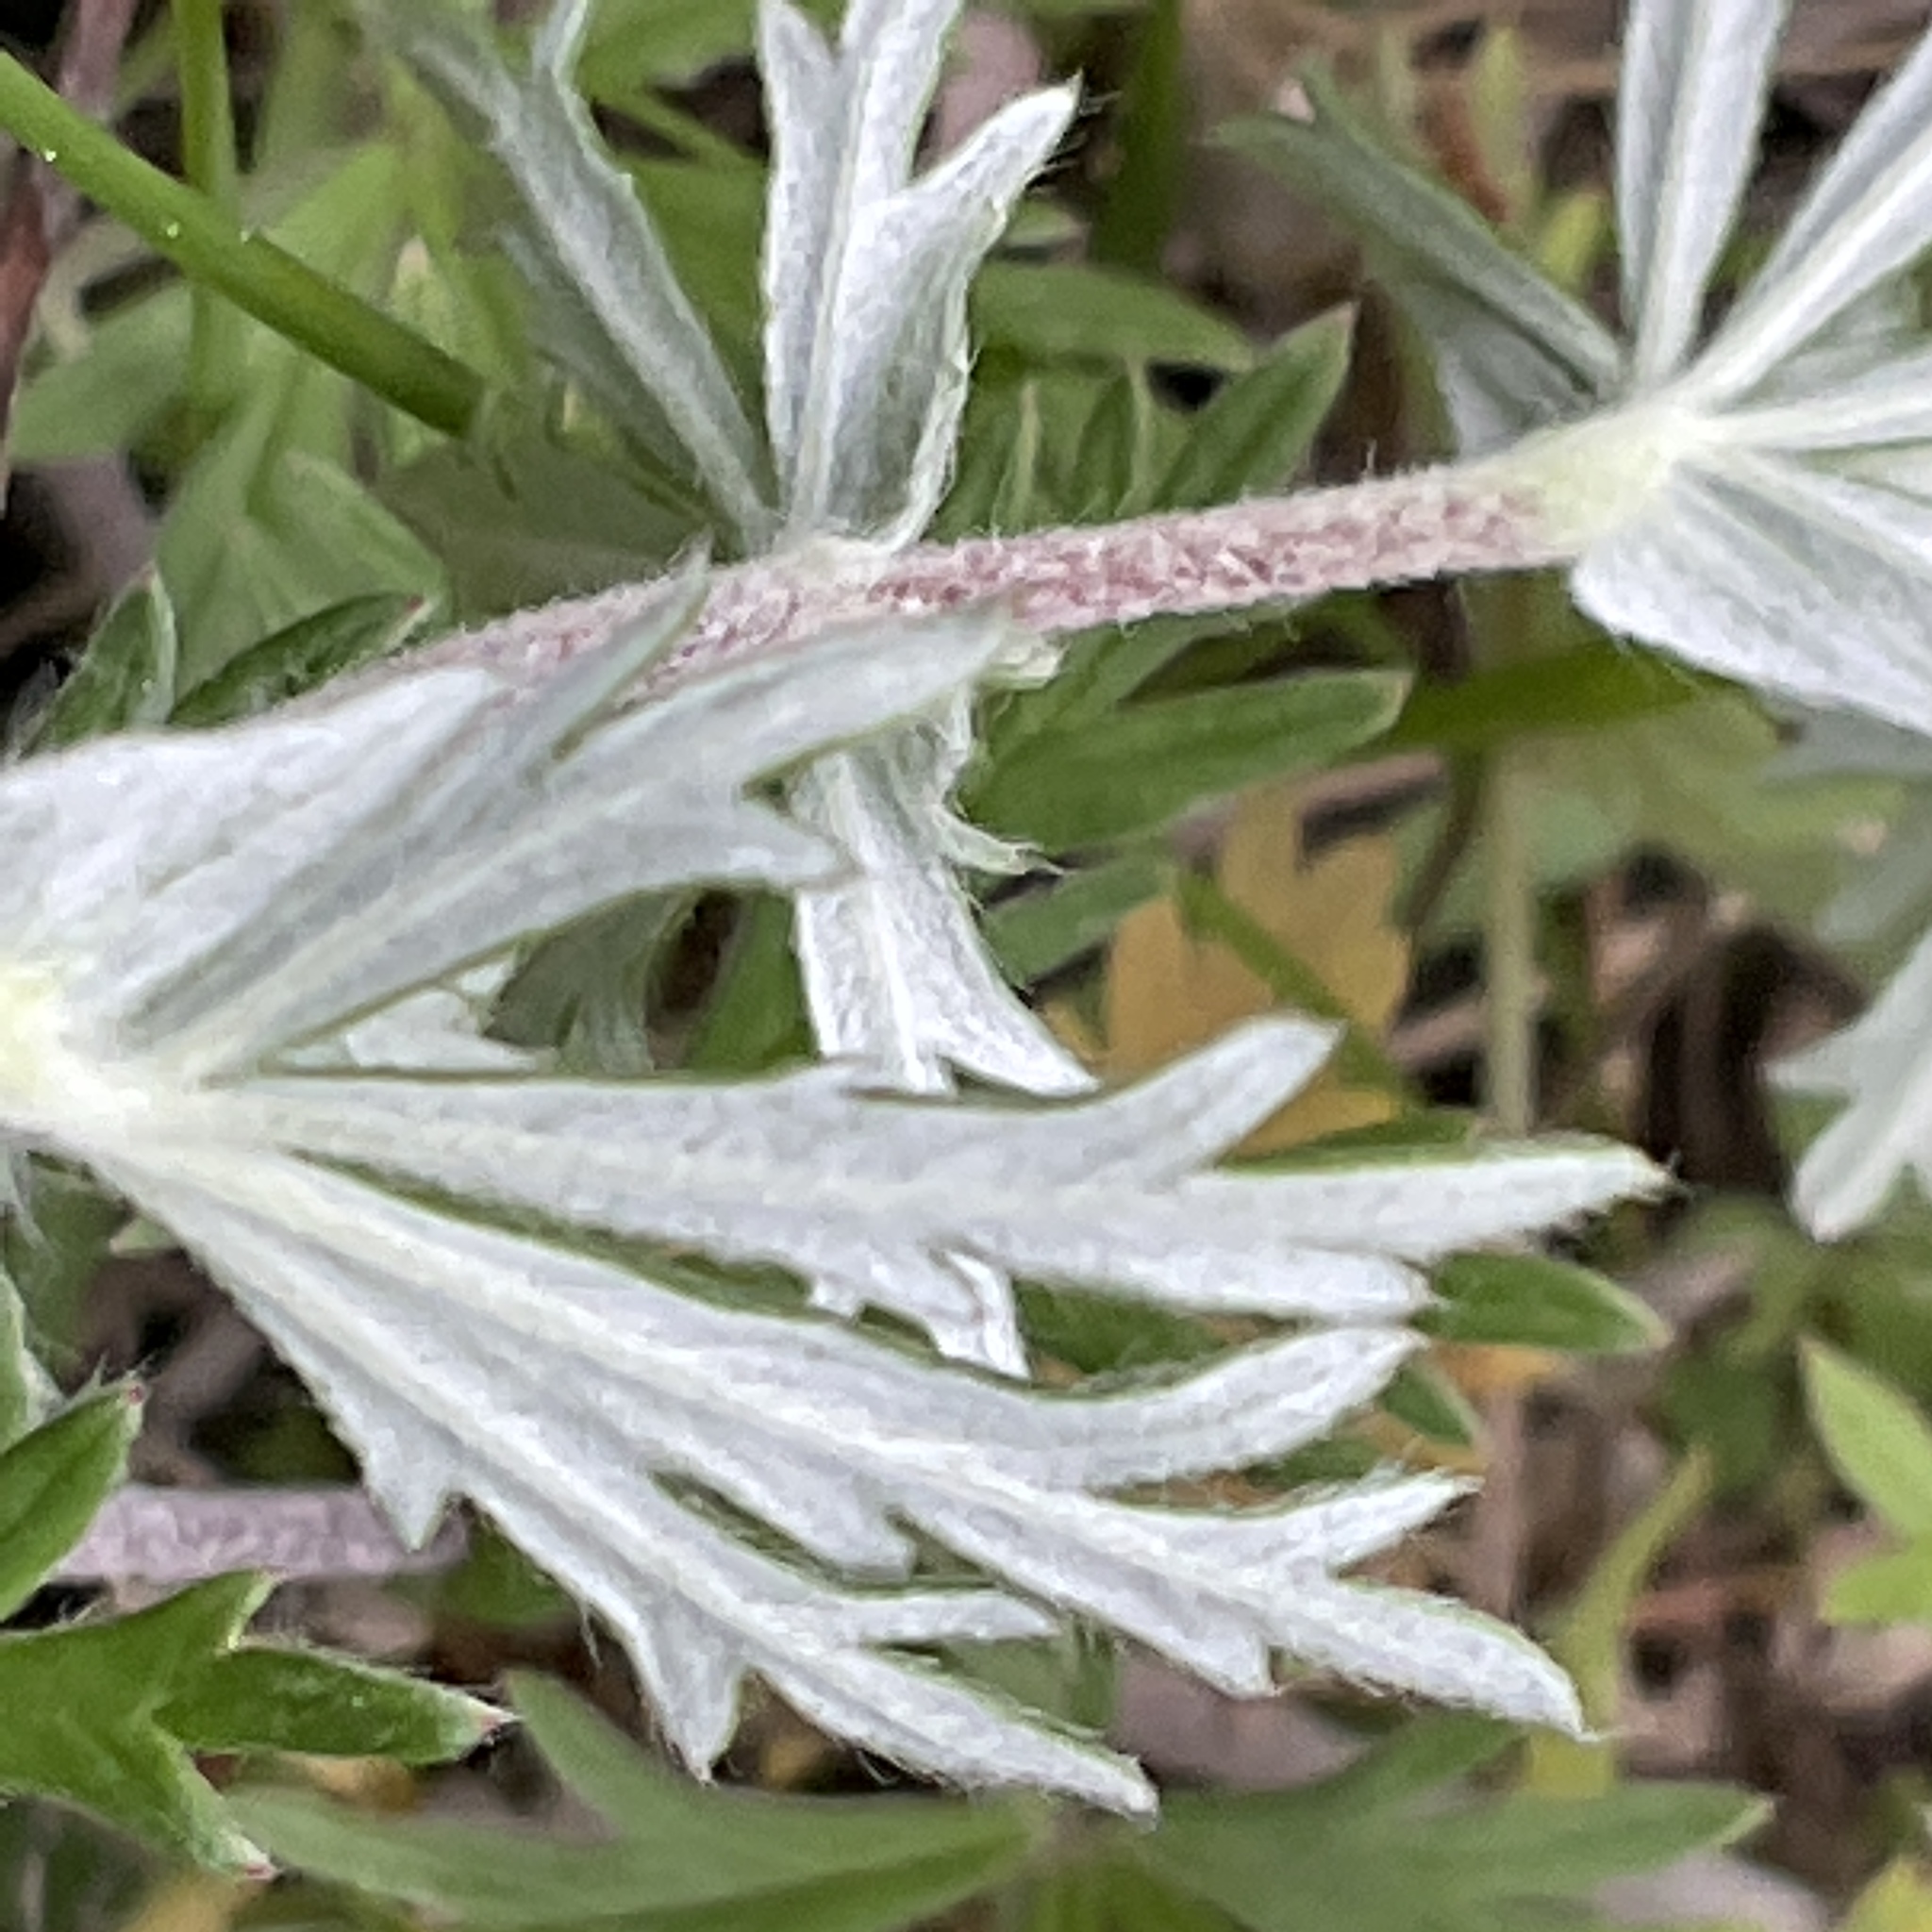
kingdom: Plantae
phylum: Tracheophyta
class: Magnoliopsida
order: Rosales
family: Rosaceae
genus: Potentilla
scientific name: Potentilla argentea
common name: Hoary cinquefoil
